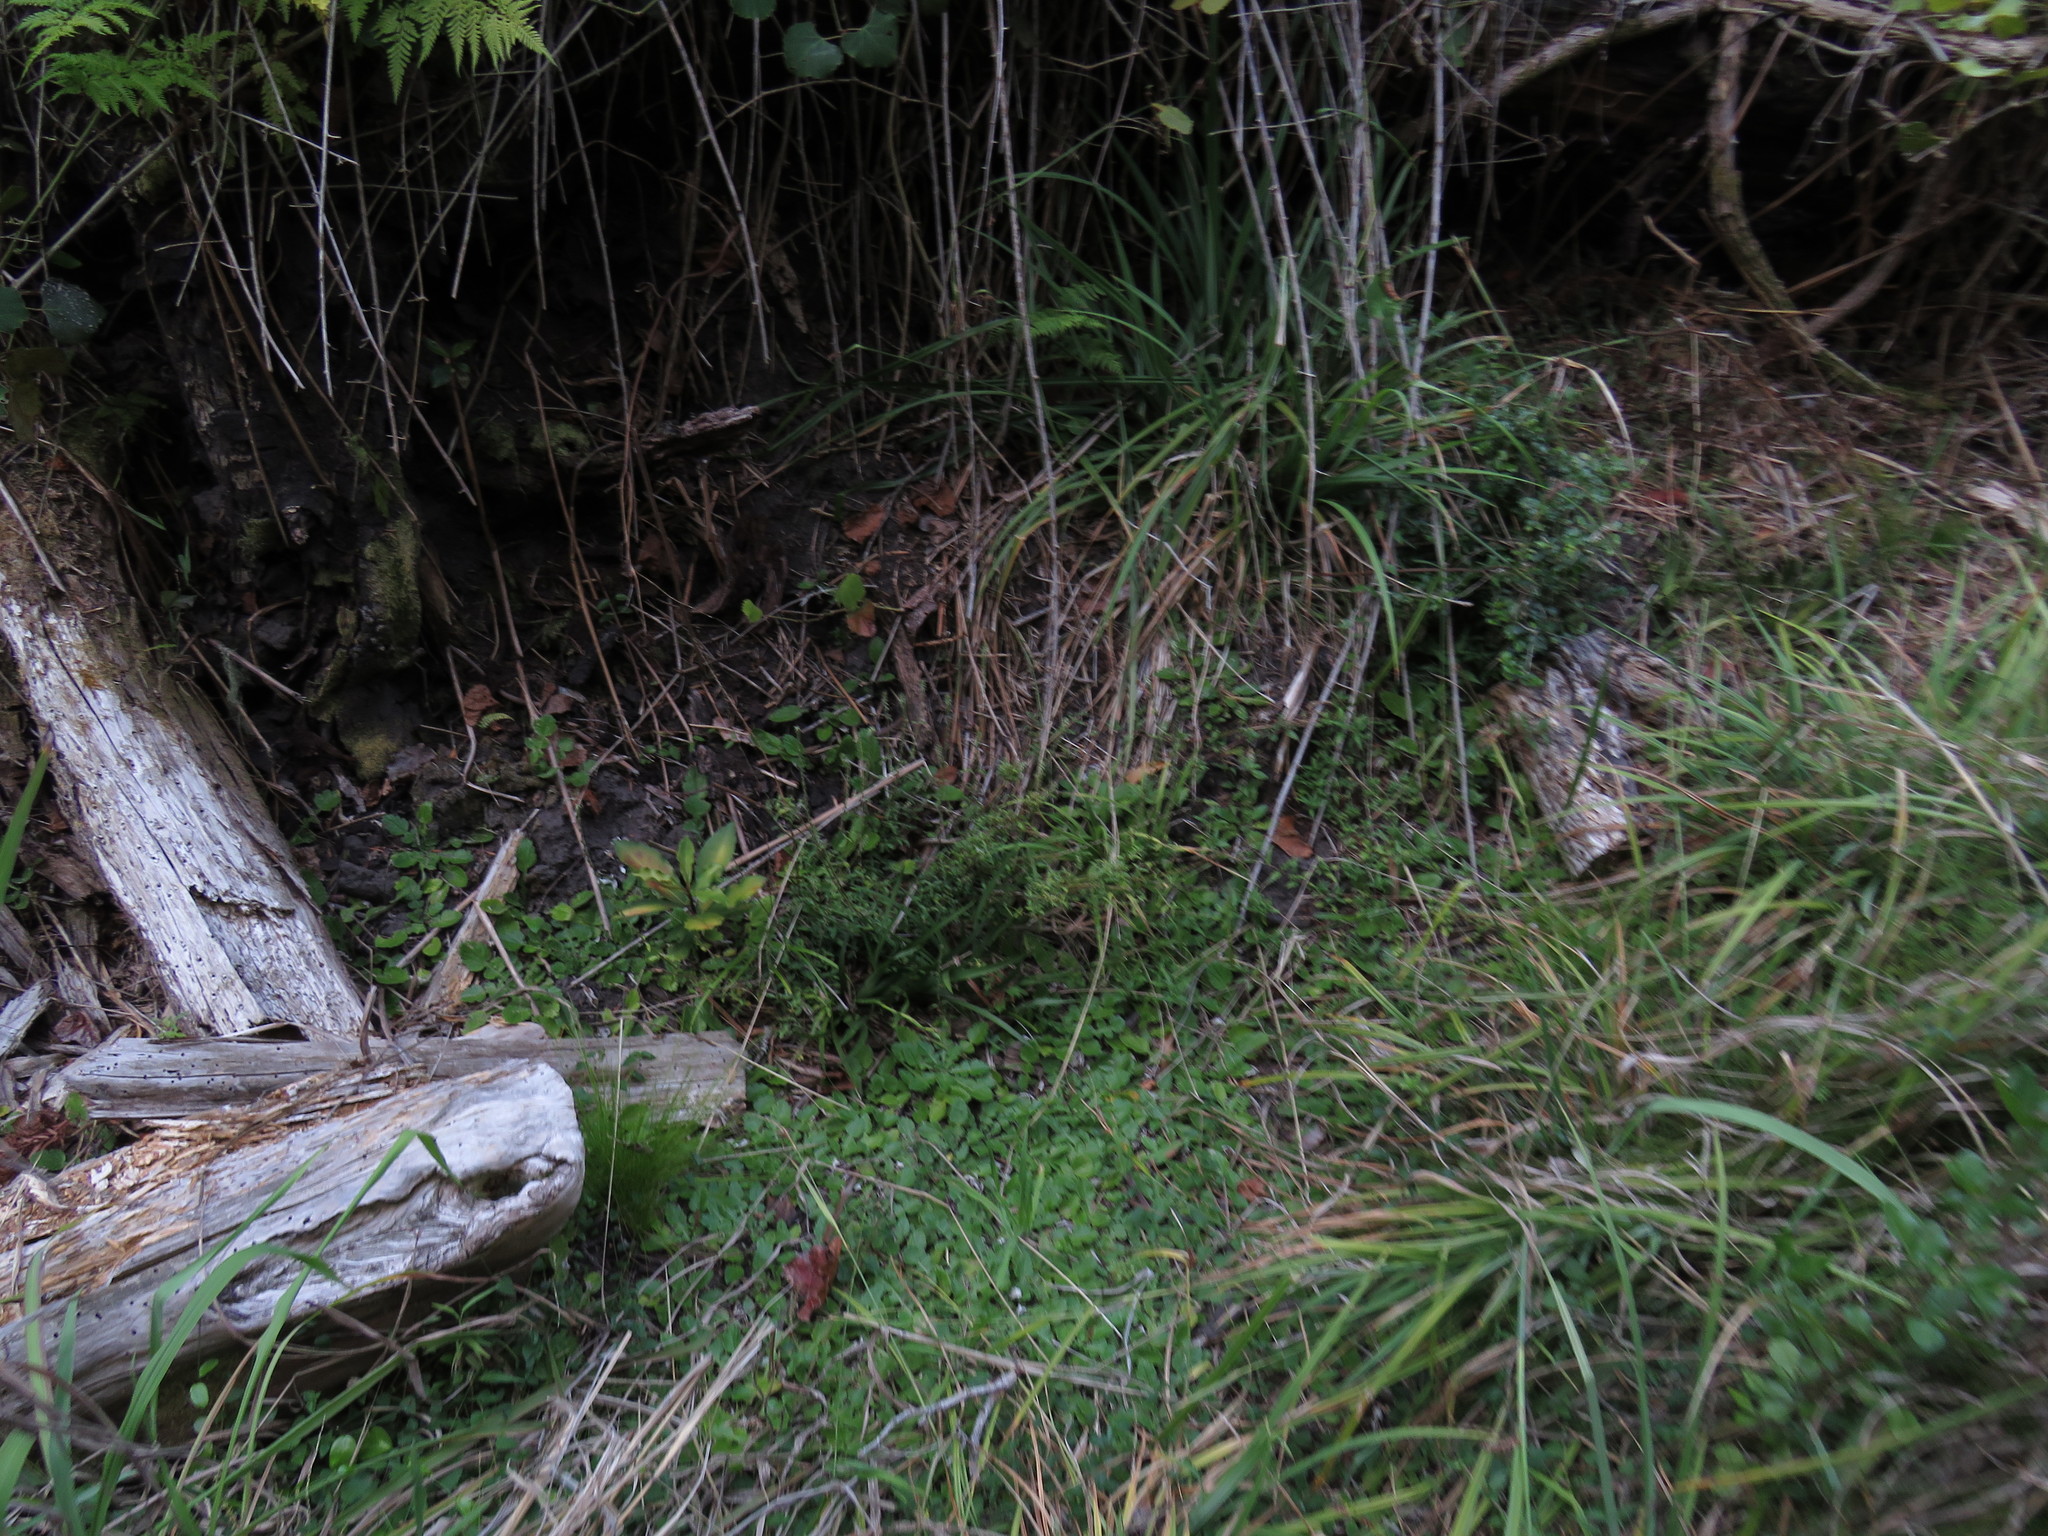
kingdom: Plantae
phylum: Tracheophyta
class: Magnoliopsida
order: Caryophyllales
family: Amaranthaceae
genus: Achyranthes
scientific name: Achyranthes aspera
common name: Devil's horsewhip
